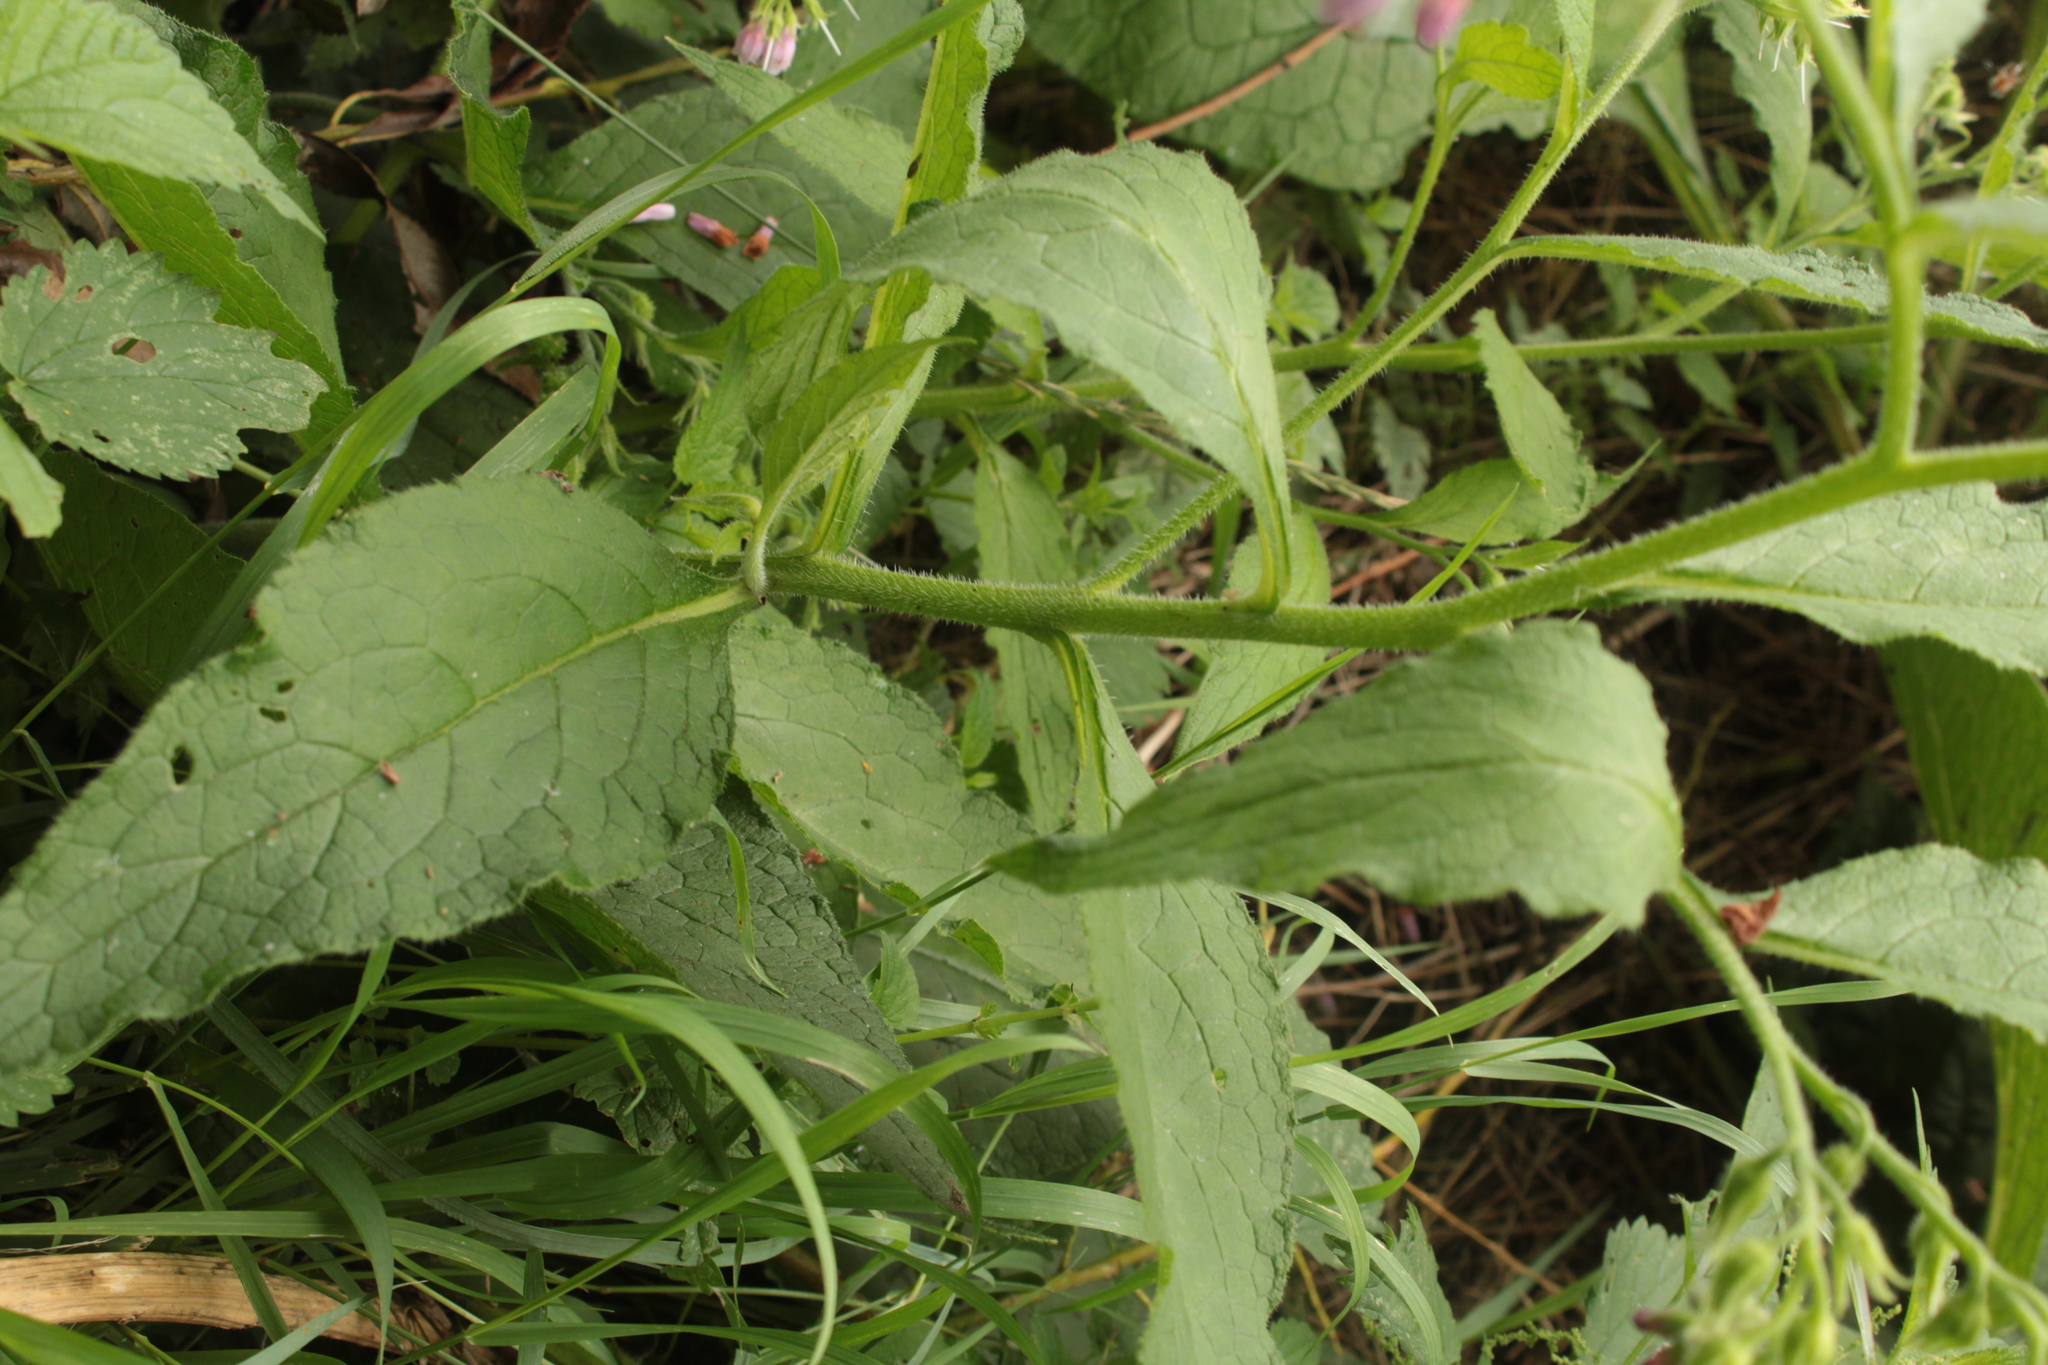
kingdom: Plantae
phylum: Tracheophyta
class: Magnoliopsida
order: Boraginales
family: Boraginaceae
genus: Symphytum
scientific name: Symphytum uplandicum
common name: Russian comfrey
